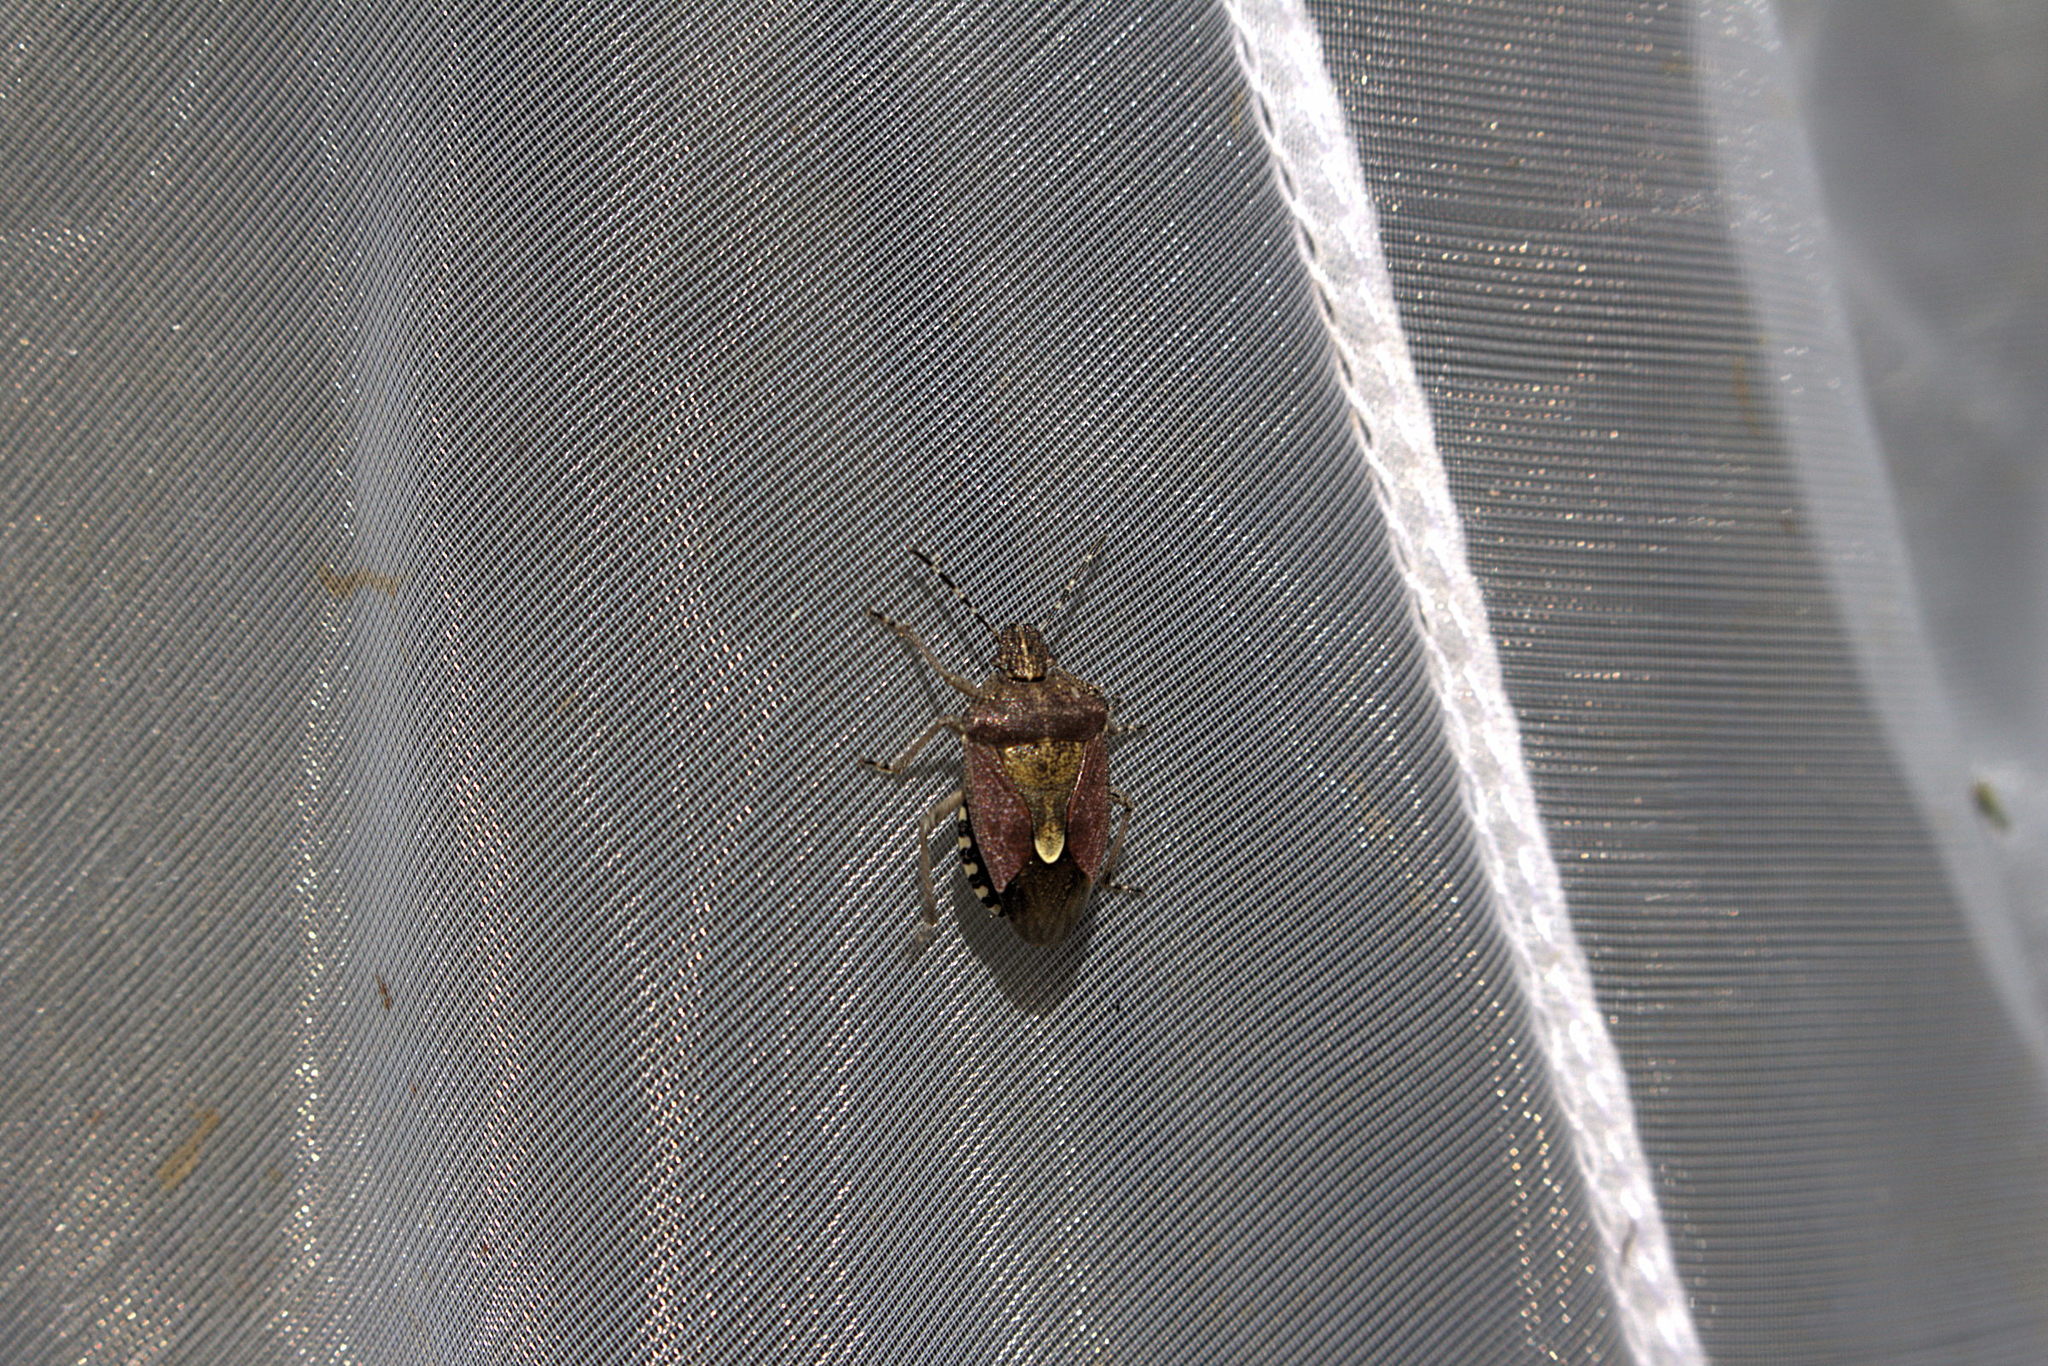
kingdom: Animalia
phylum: Arthropoda
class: Insecta
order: Hemiptera
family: Pentatomidae
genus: Dolycoris
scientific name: Dolycoris baccarum
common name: Sloe bug
